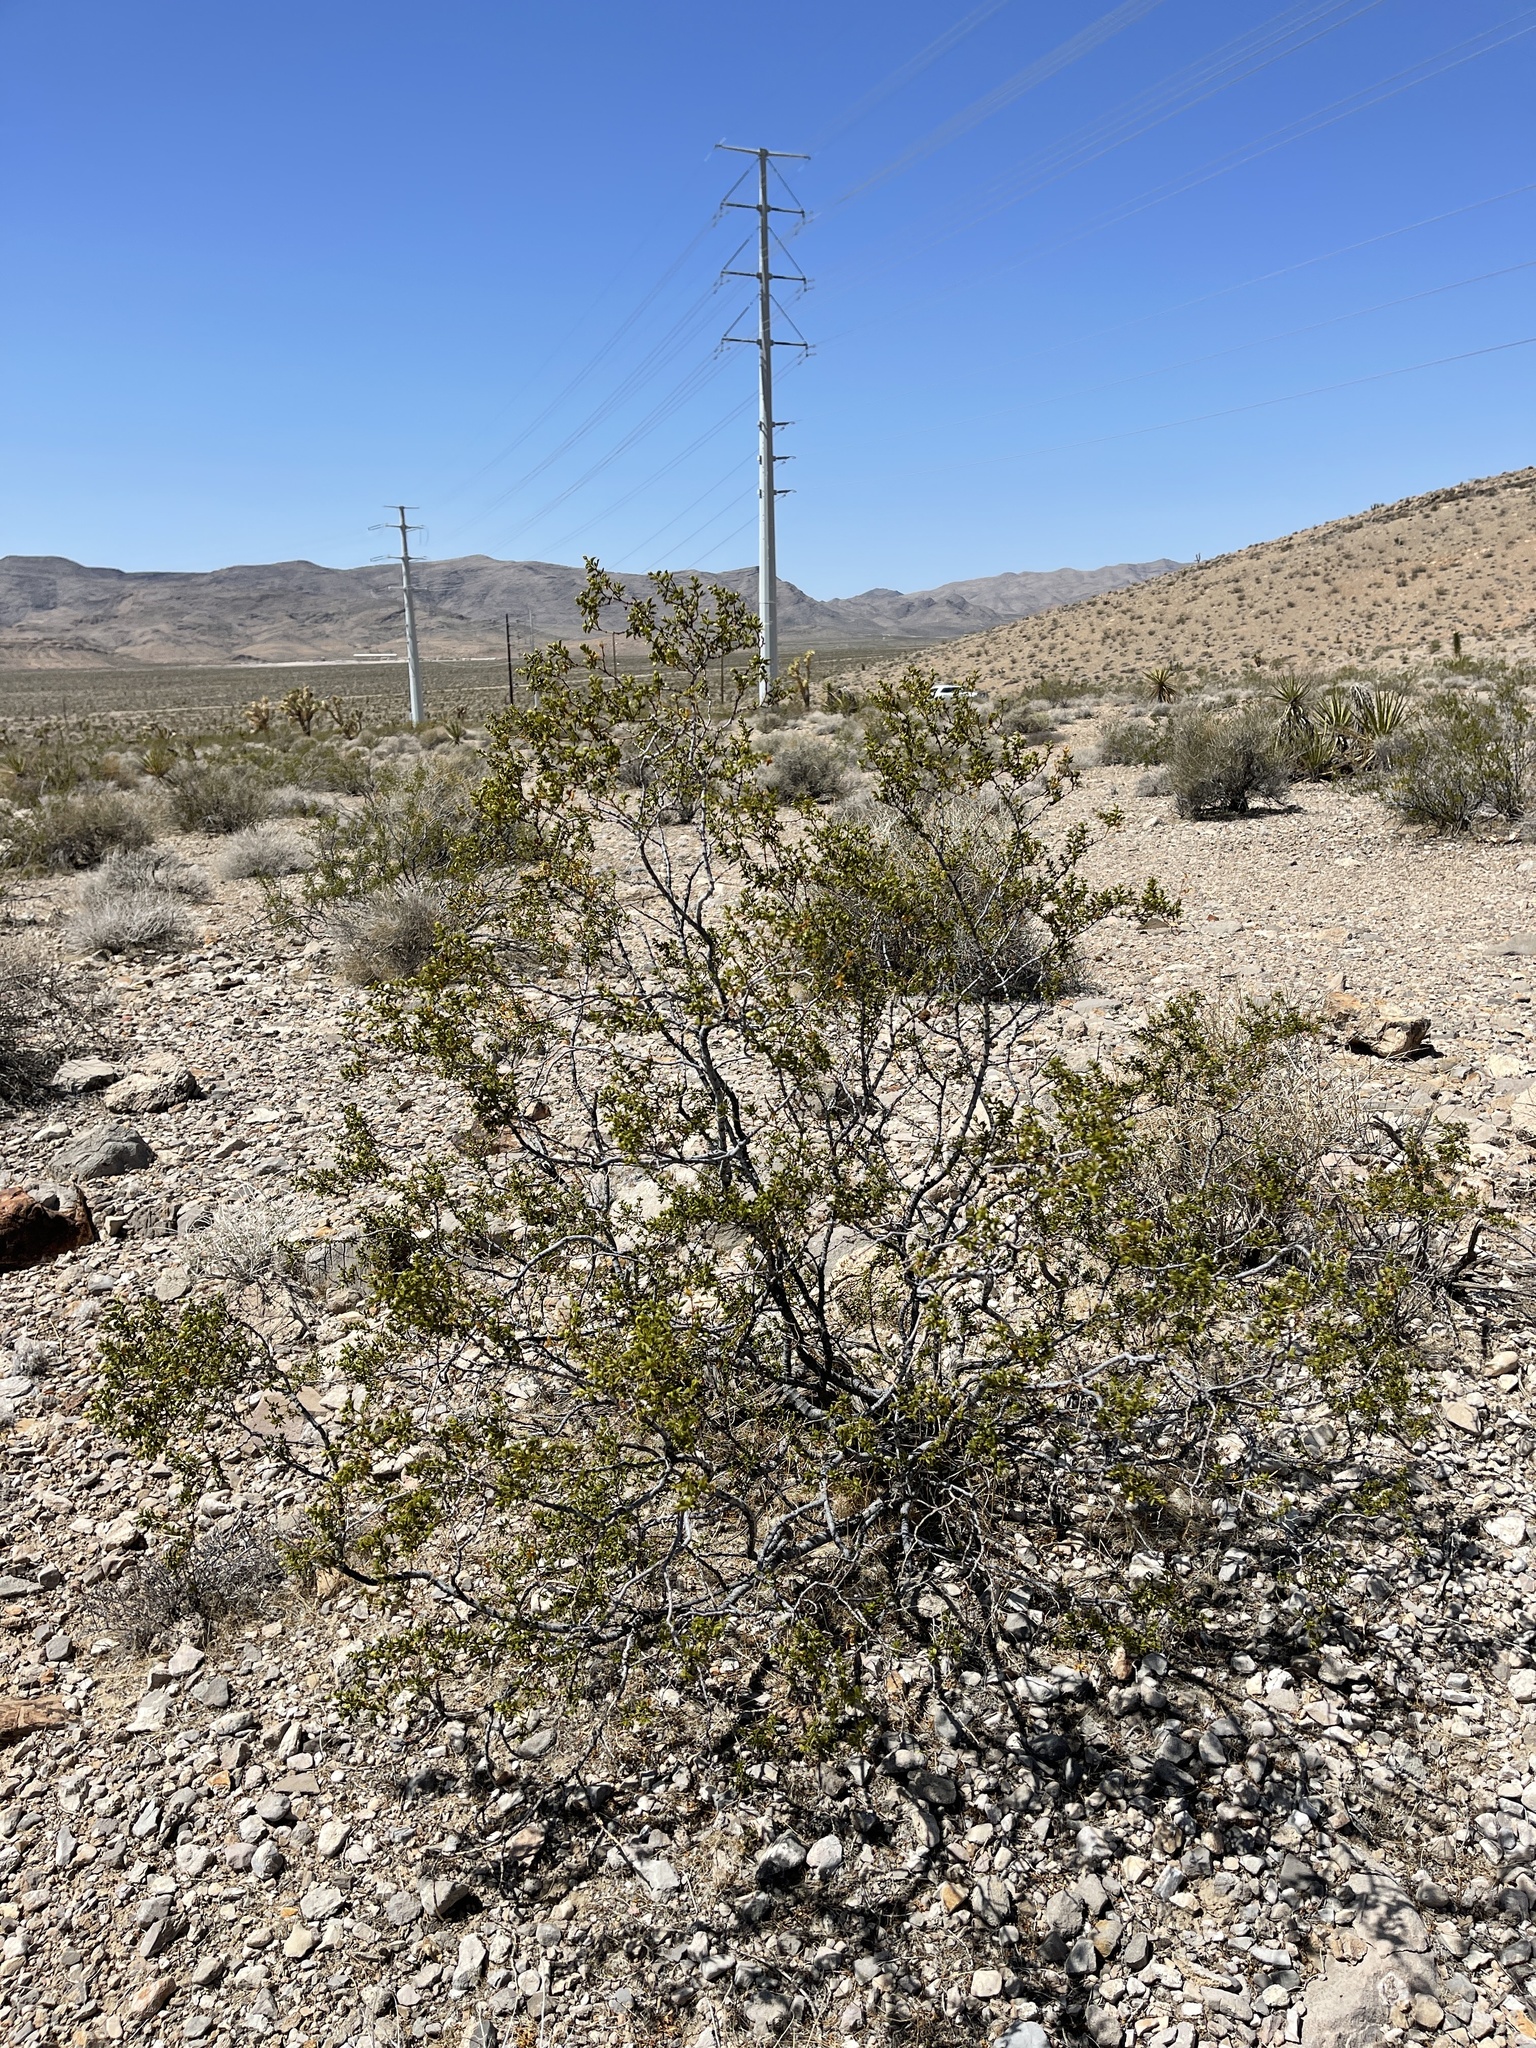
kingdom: Plantae
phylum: Tracheophyta
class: Magnoliopsida
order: Zygophyllales
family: Zygophyllaceae
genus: Larrea
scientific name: Larrea tridentata
